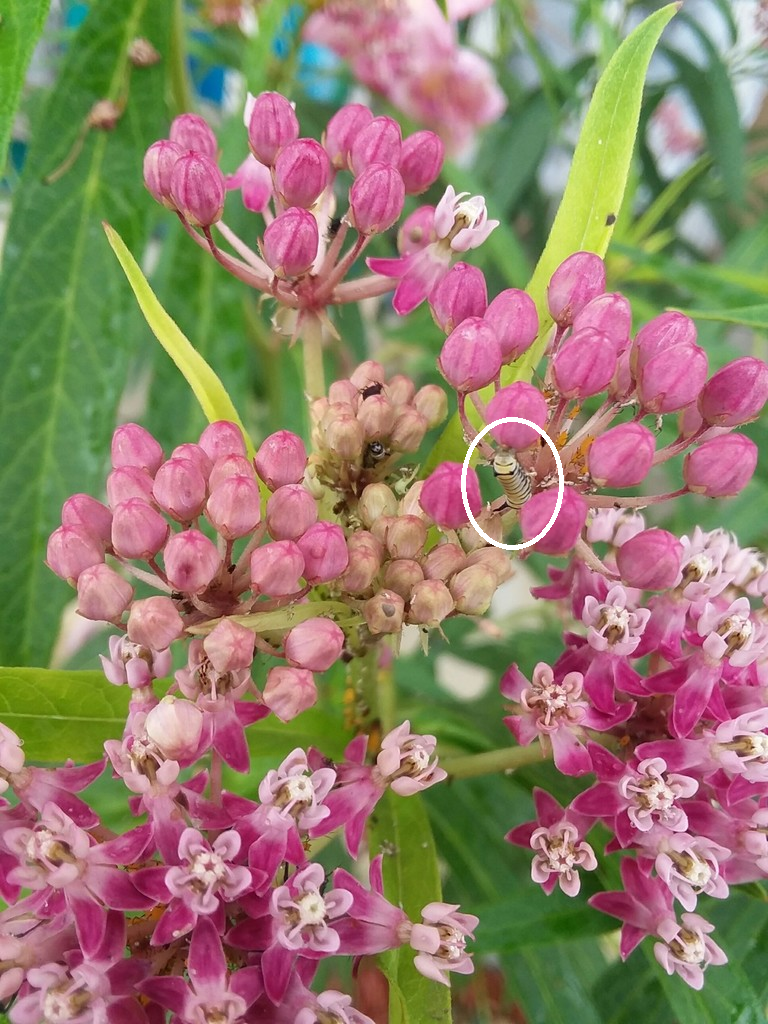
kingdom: Animalia
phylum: Arthropoda
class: Insecta
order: Lepidoptera
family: Nymphalidae
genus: Danaus
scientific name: Danaus plexippus
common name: Monarch
